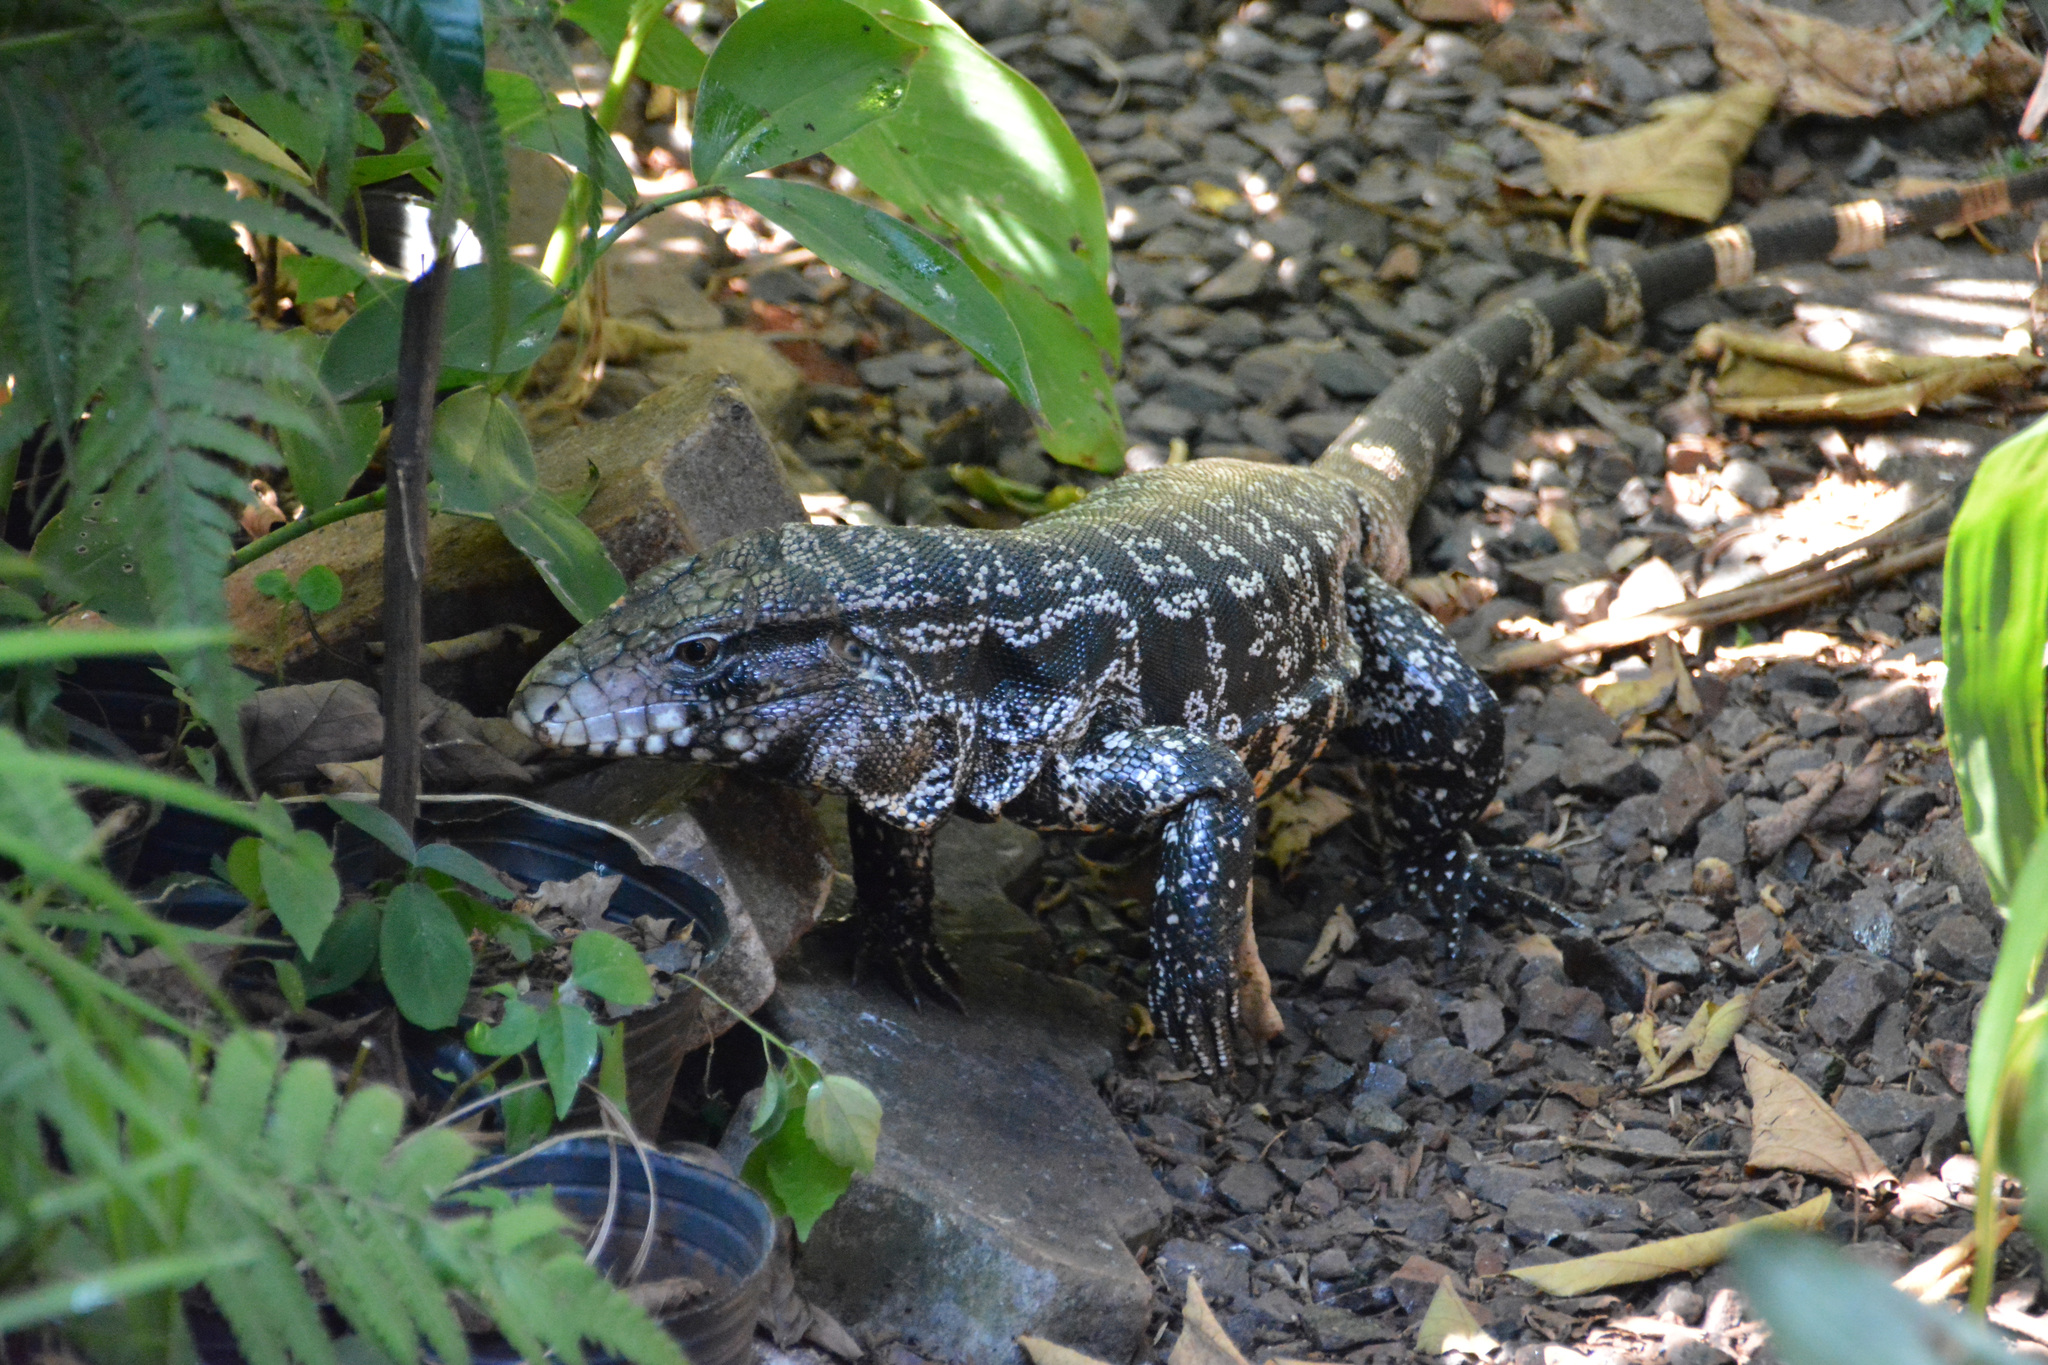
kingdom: Animalia
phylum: Chordata
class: Squamata
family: Teiidae
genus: Salvator
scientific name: Salvator merianae
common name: Argentine black and white tegu
